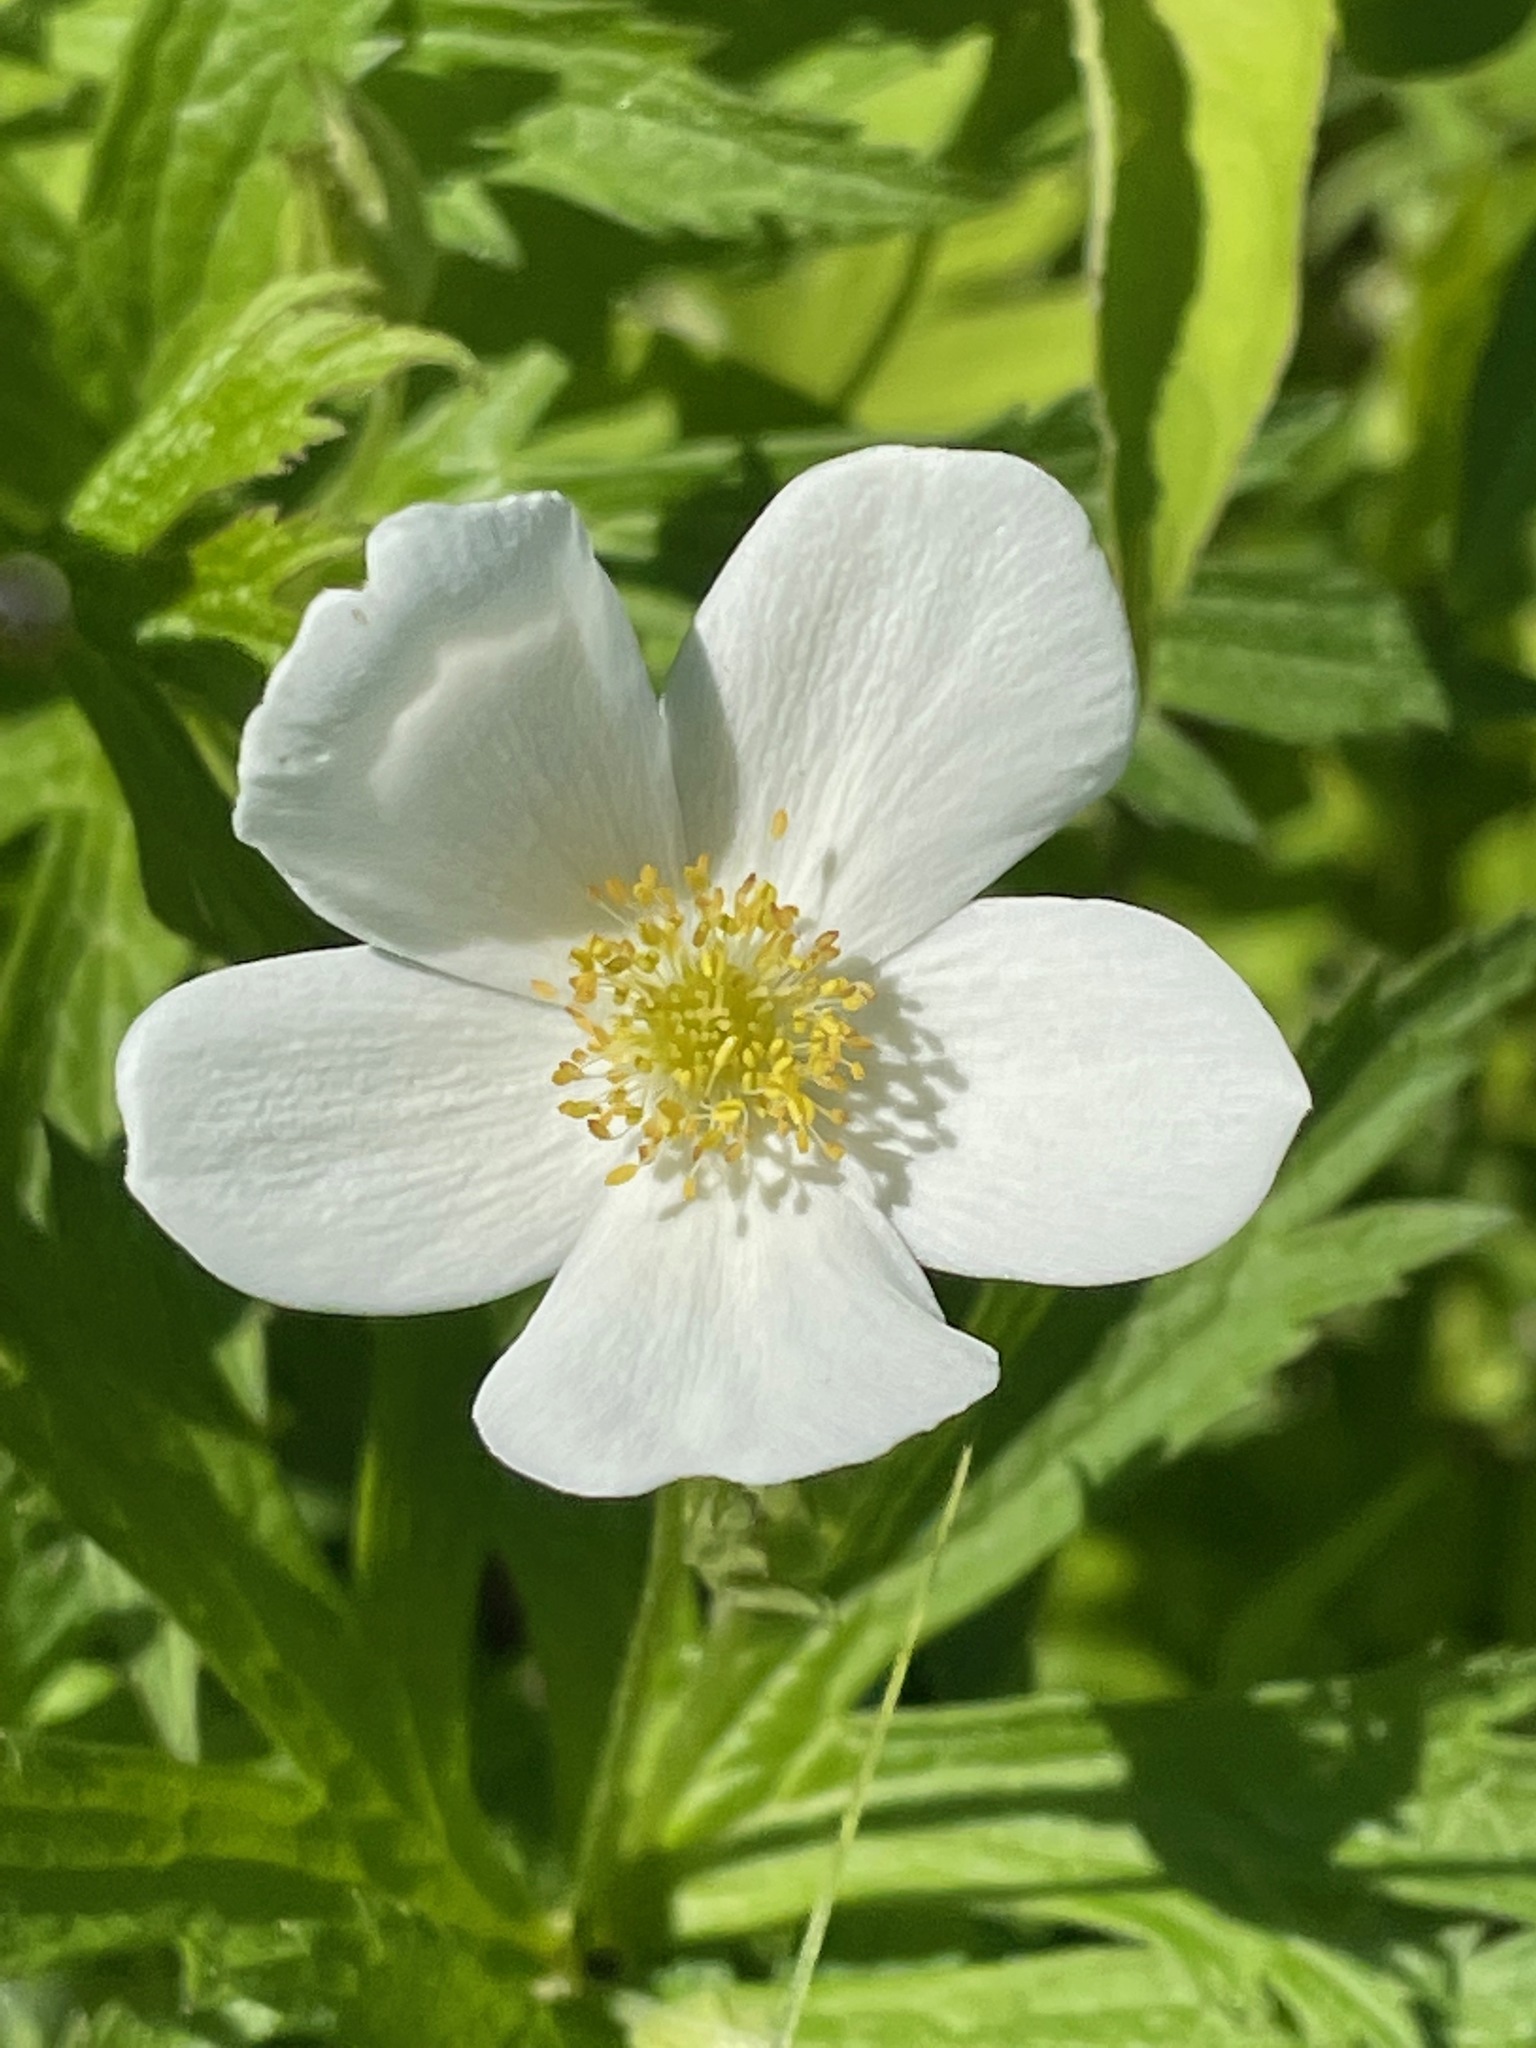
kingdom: Plantae
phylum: Tracheophyta
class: Magnoliopsida
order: Ranunculales
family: Ranunculaceae
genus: Anemonastrum
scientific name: Anemonastrum canadense
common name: Canada anemone
